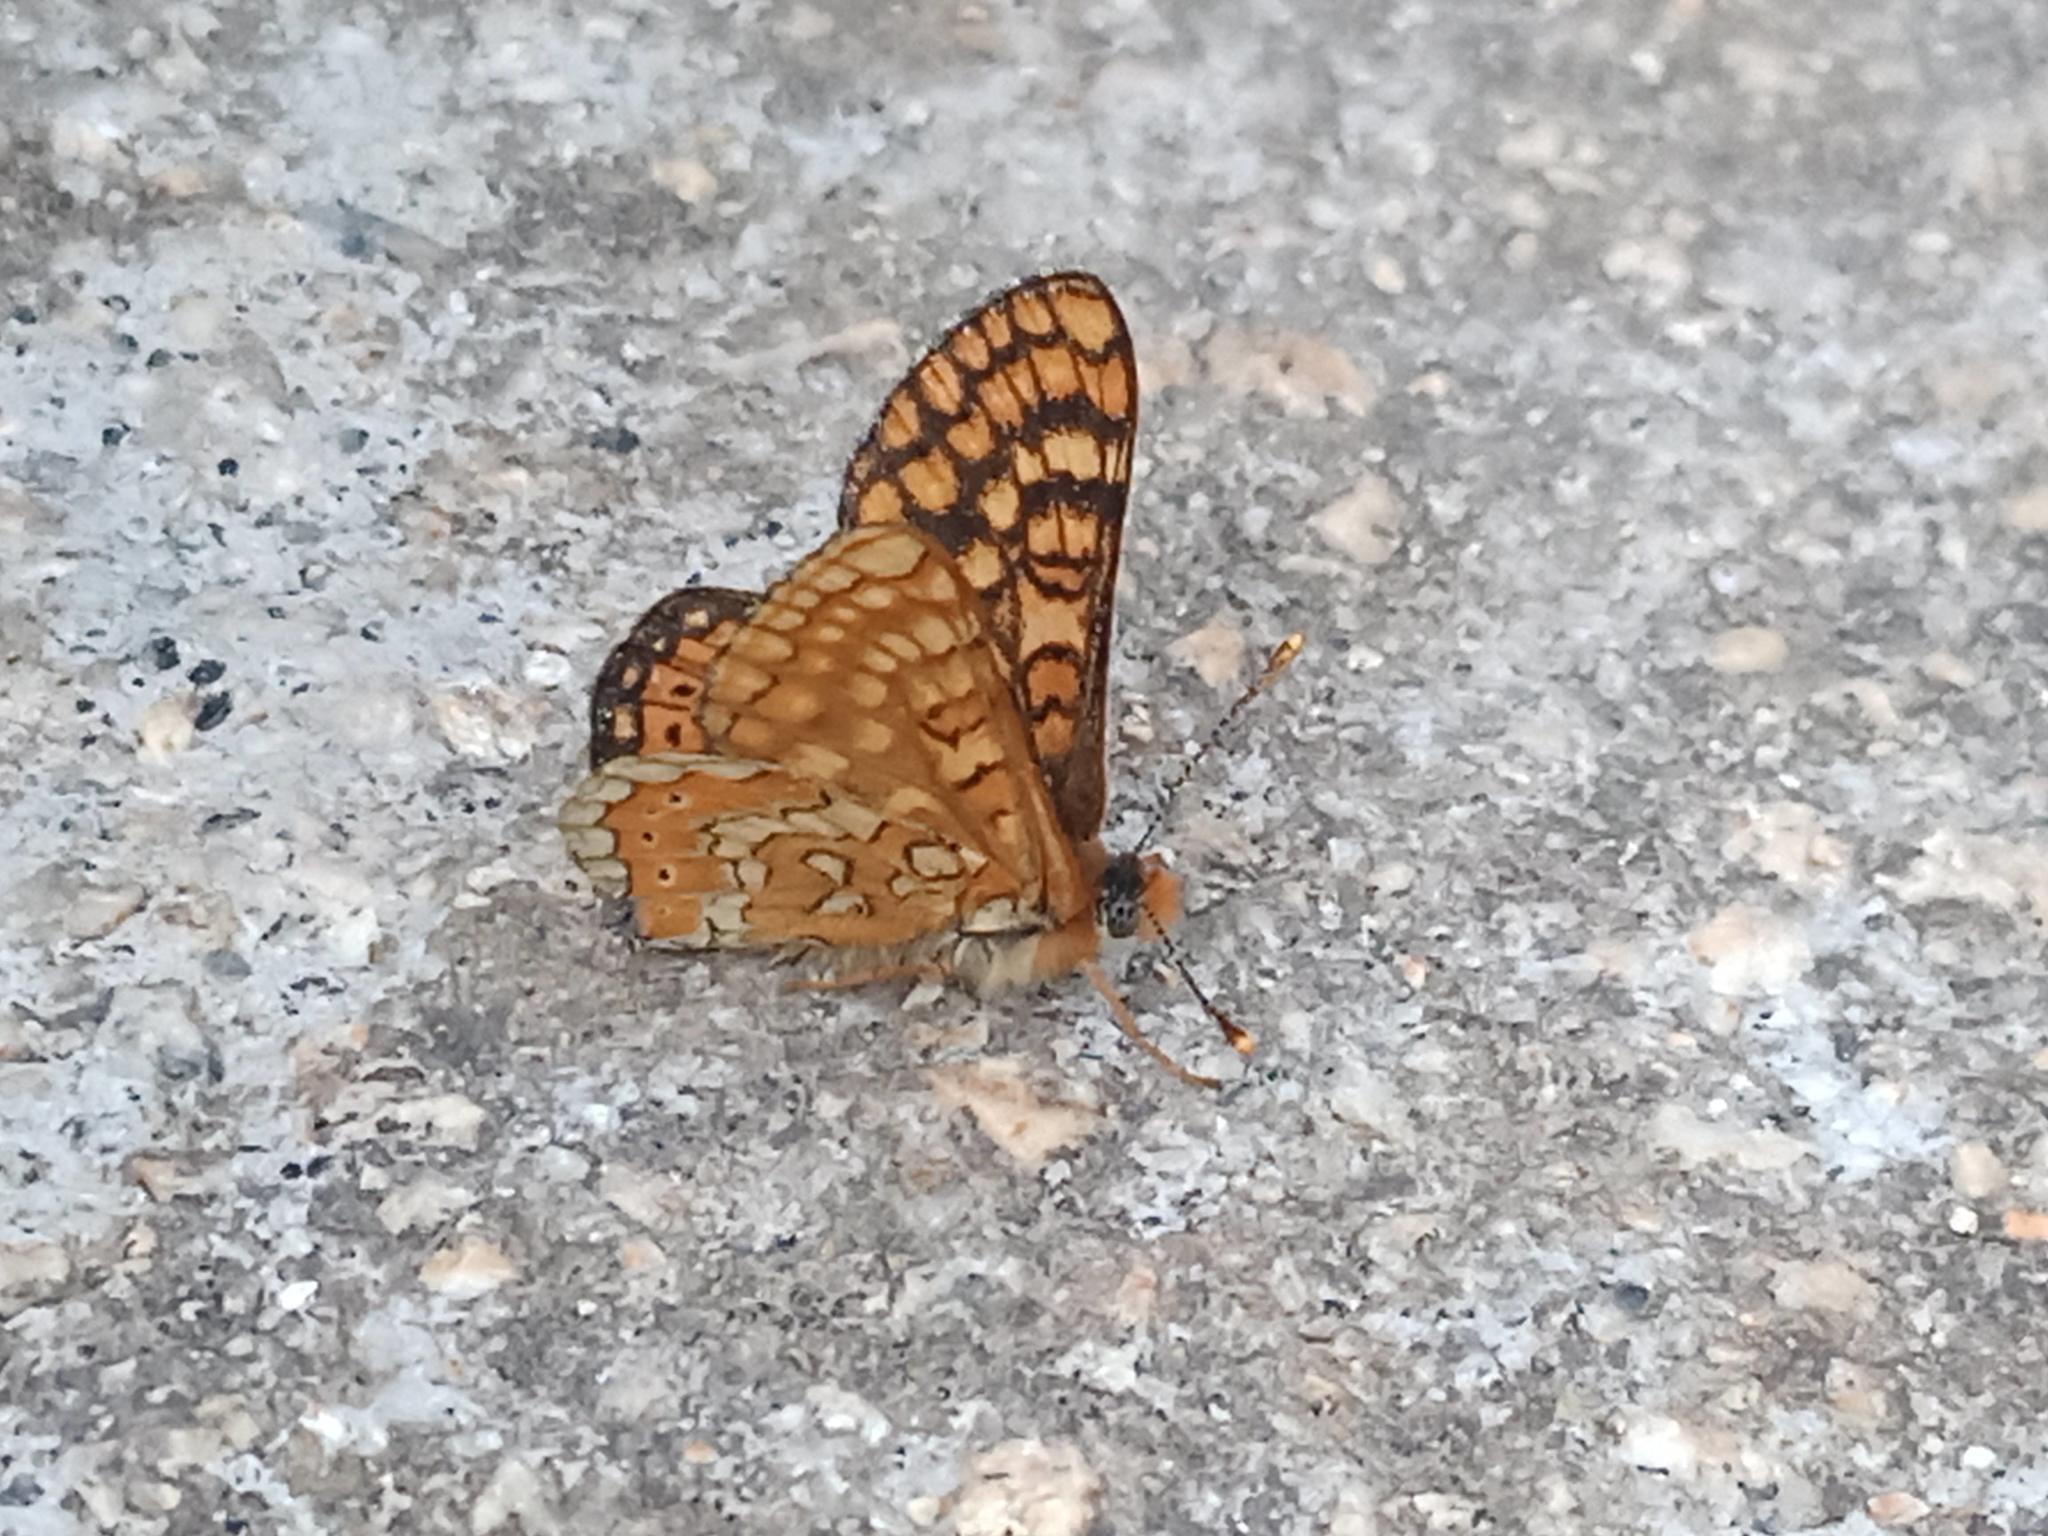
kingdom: Animalia
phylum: Arthropoda
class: Insecta
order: Lepidoptera
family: Nymphalidae
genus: Euphydryas
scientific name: Euphydryas beckeri
